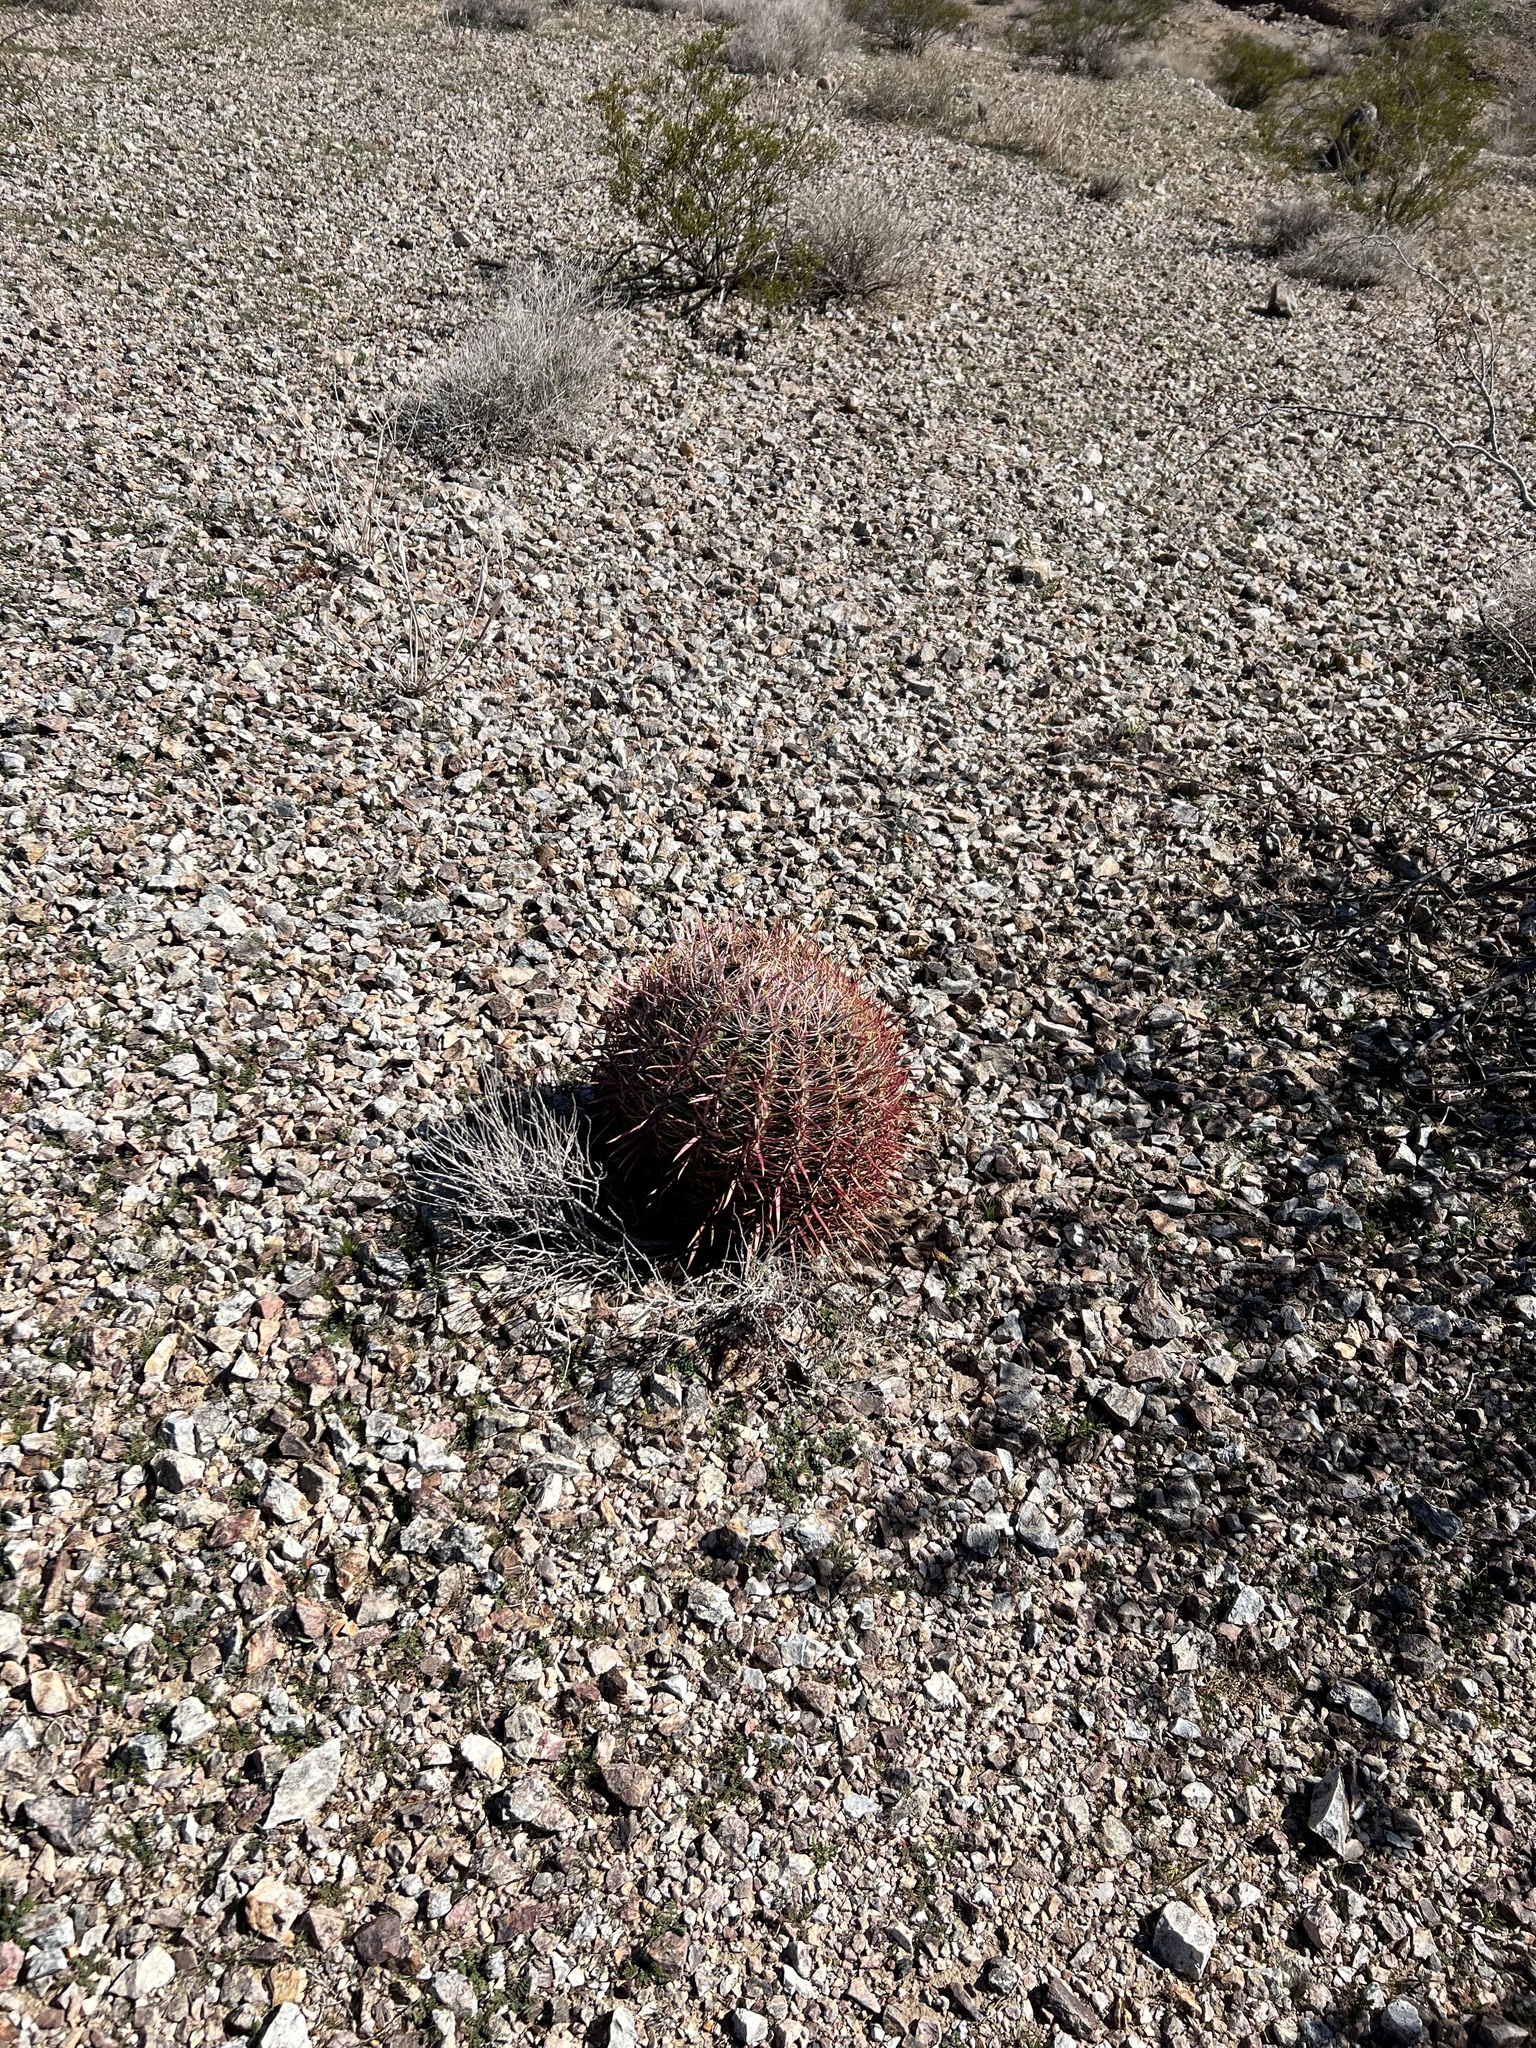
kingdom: Plantae
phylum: Tracheophyta
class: Magnoliopsida
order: Caryophyllales
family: Cactaceae
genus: Ferocactus
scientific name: Ferocactus cylindraceus
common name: California barrel cactus
